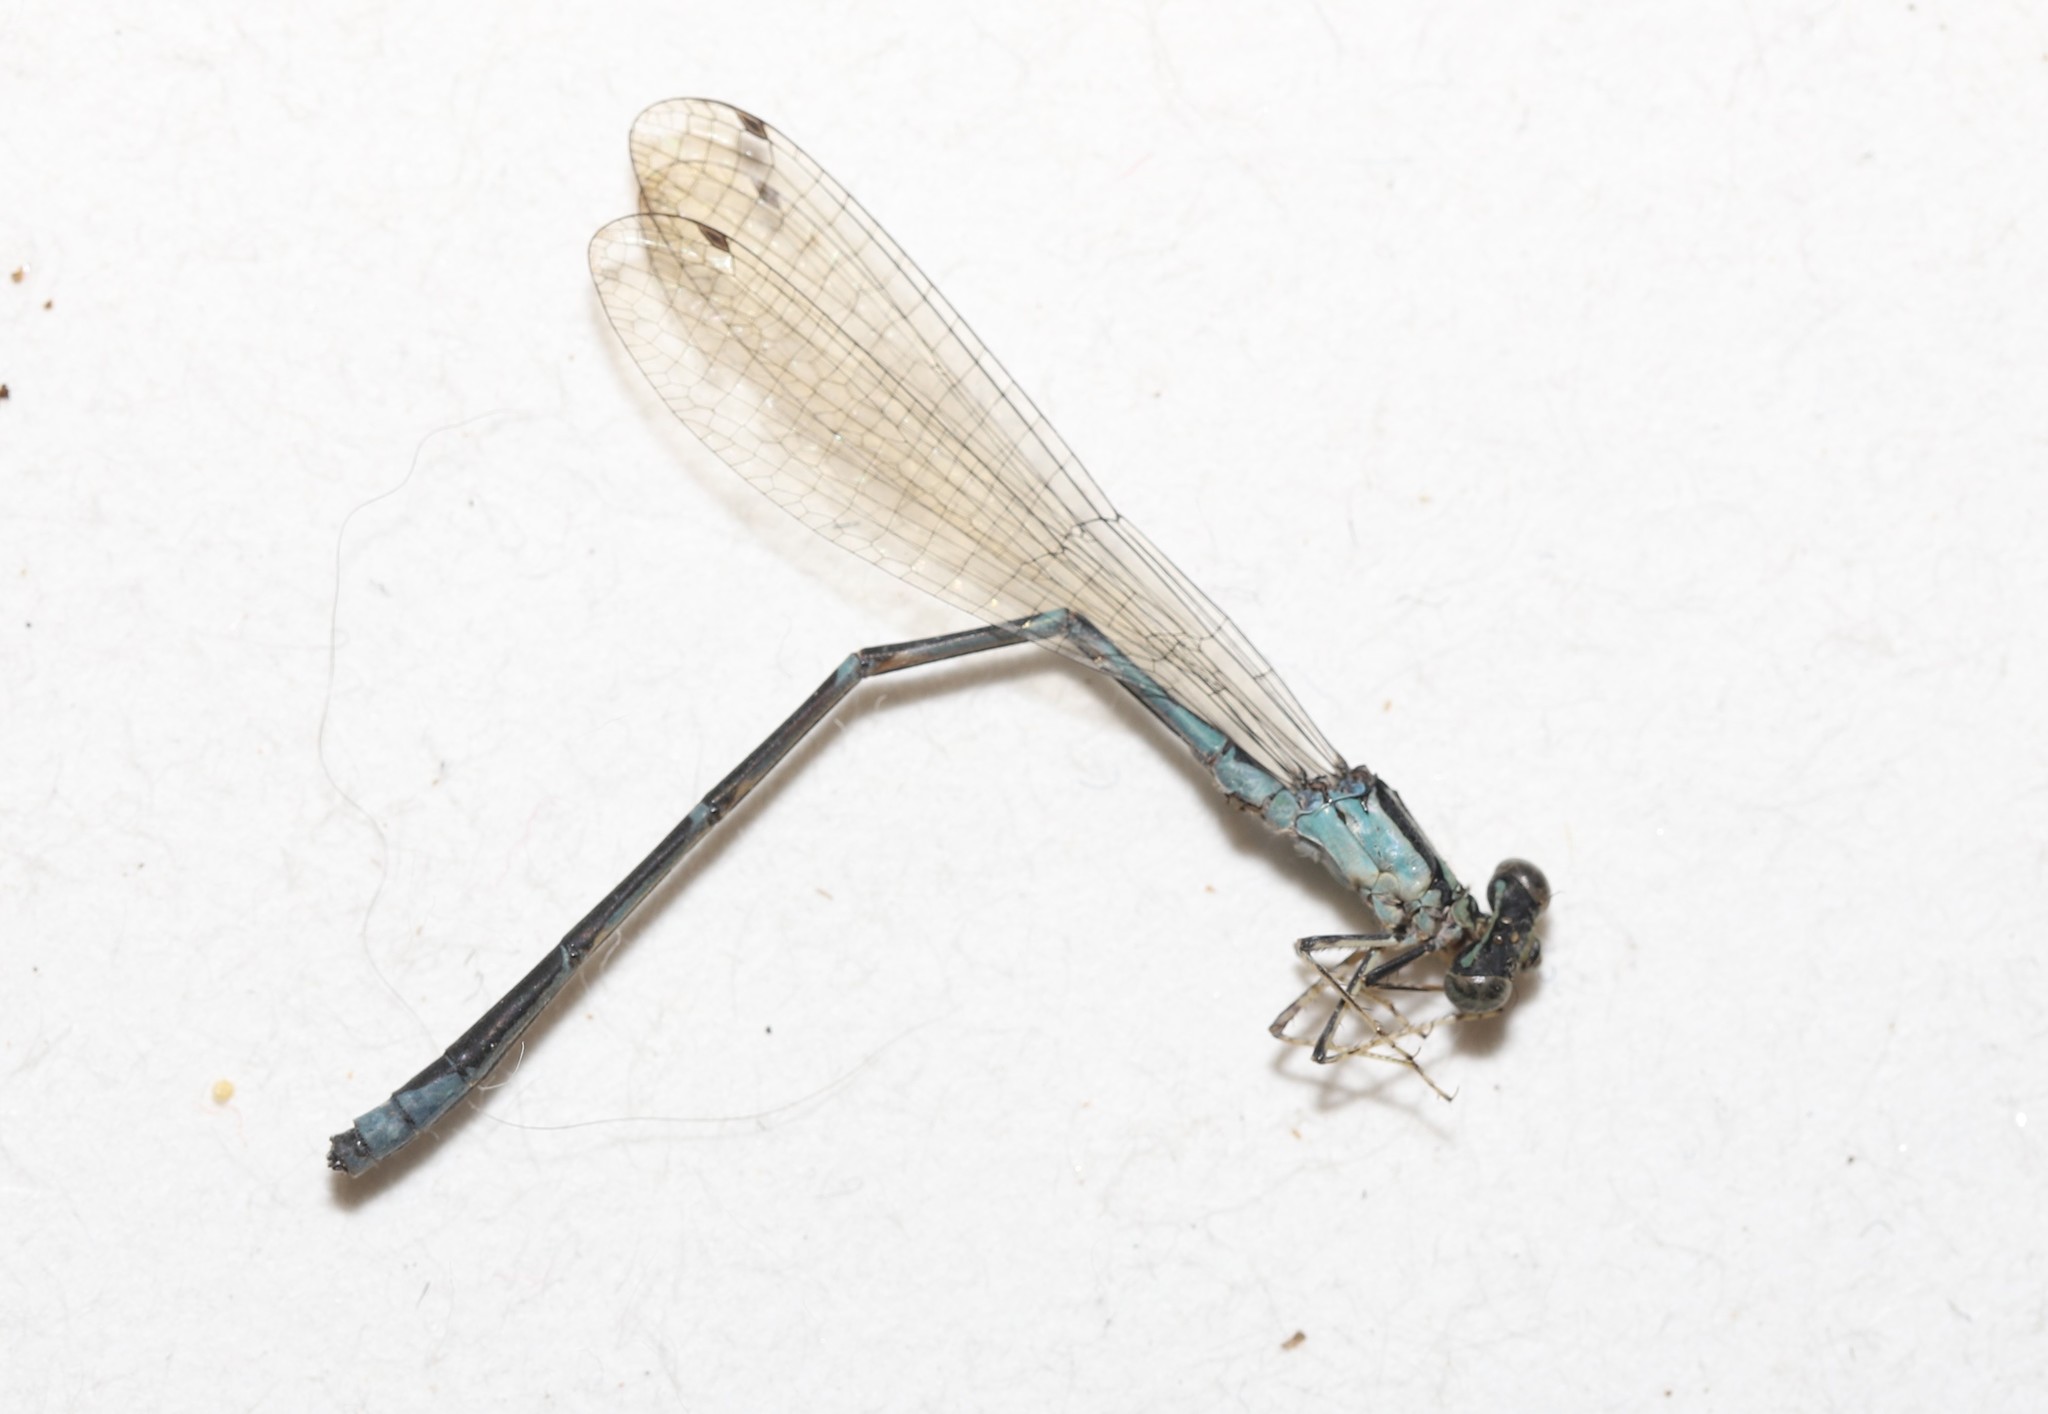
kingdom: Animalia
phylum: Arthropoda
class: Insecta
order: Odonata
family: Coenagrionidae
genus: Enallagma
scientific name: Enallagma exsulans
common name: Stream bluet
